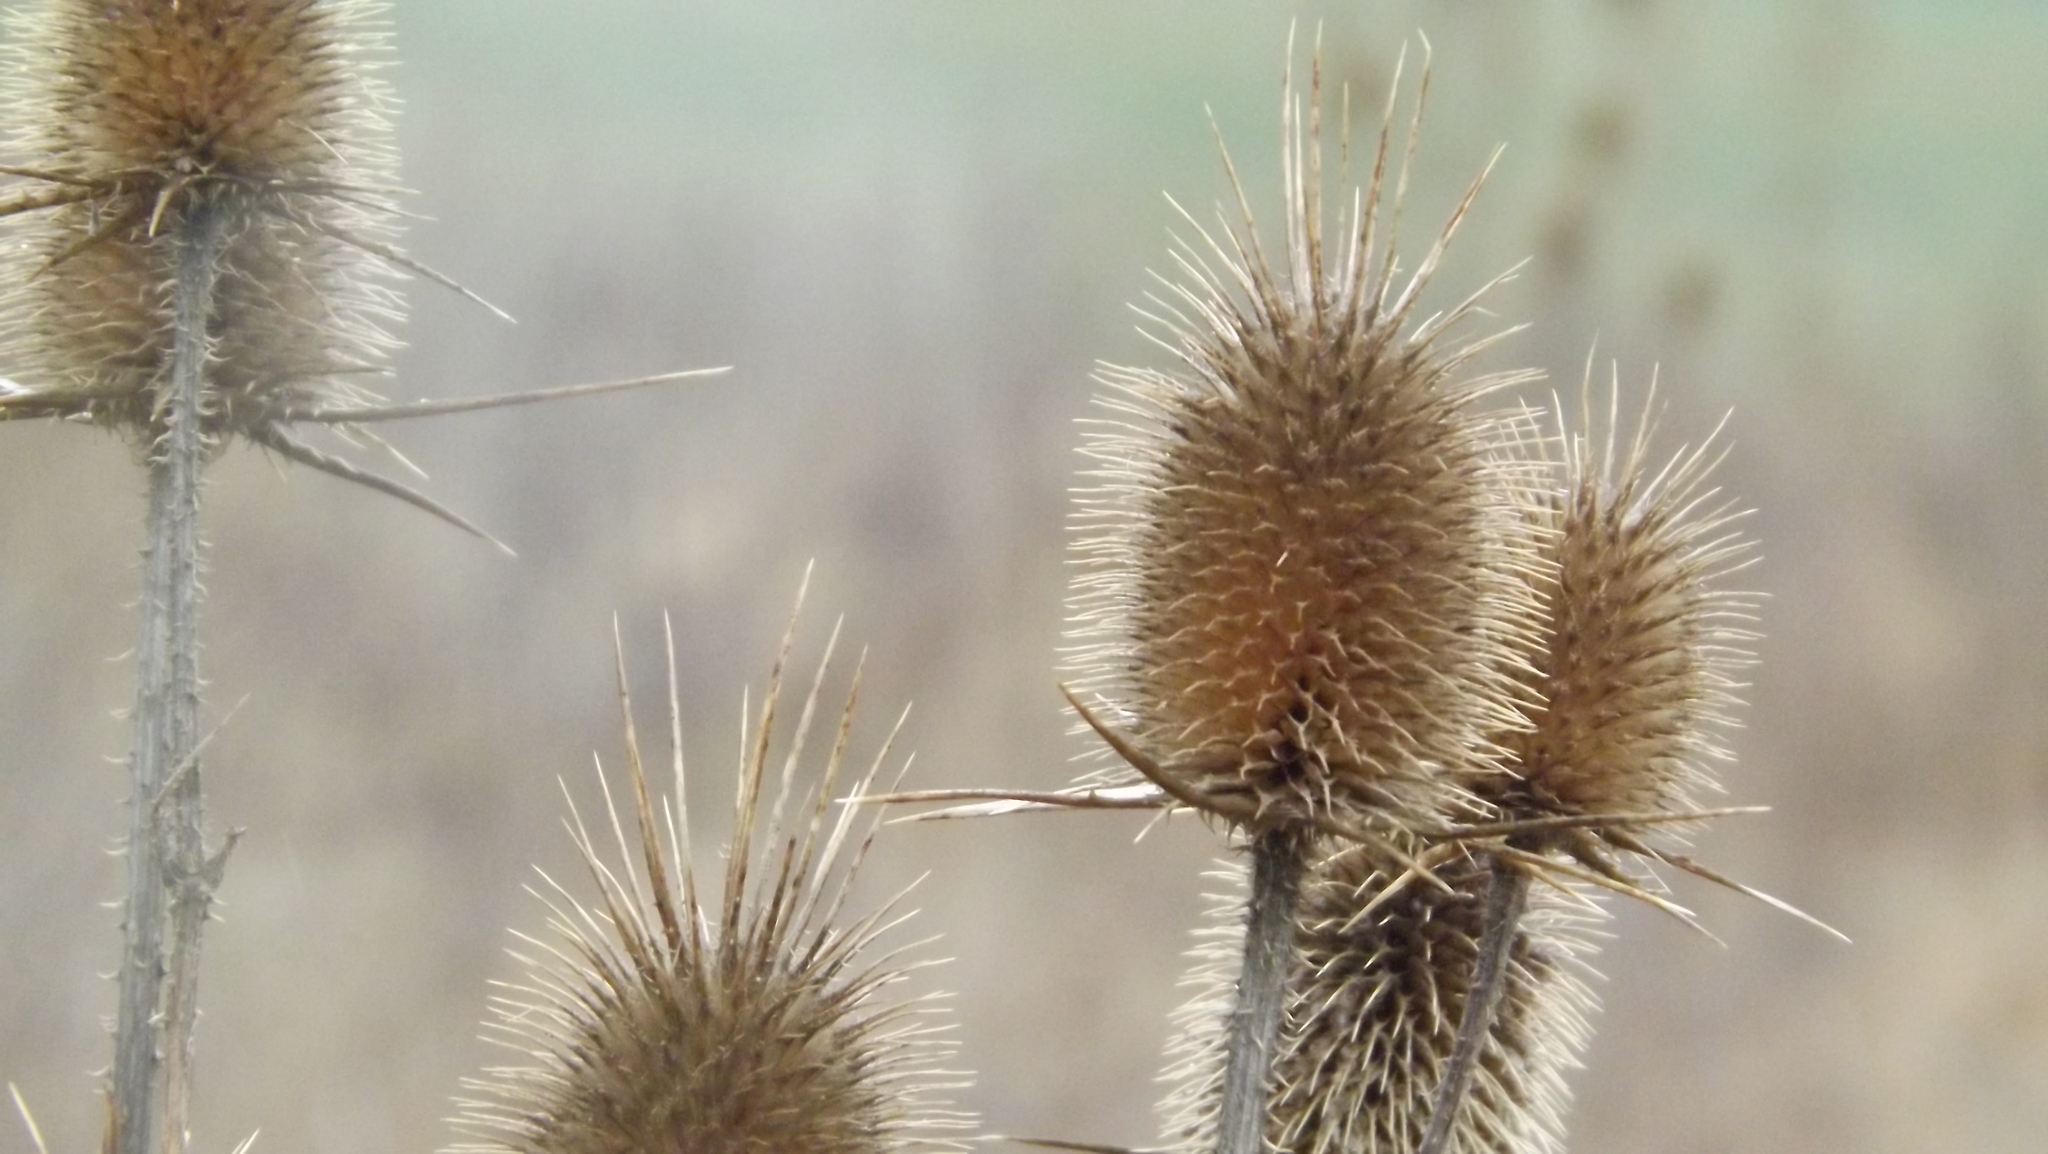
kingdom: Plantae
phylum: Tracheophyta
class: Magnoliopsida
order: Dipsacales
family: Caprifoliaceae
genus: Dipsacus
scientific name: Dipsacus laciniatus
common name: Cut-leaved teasel
